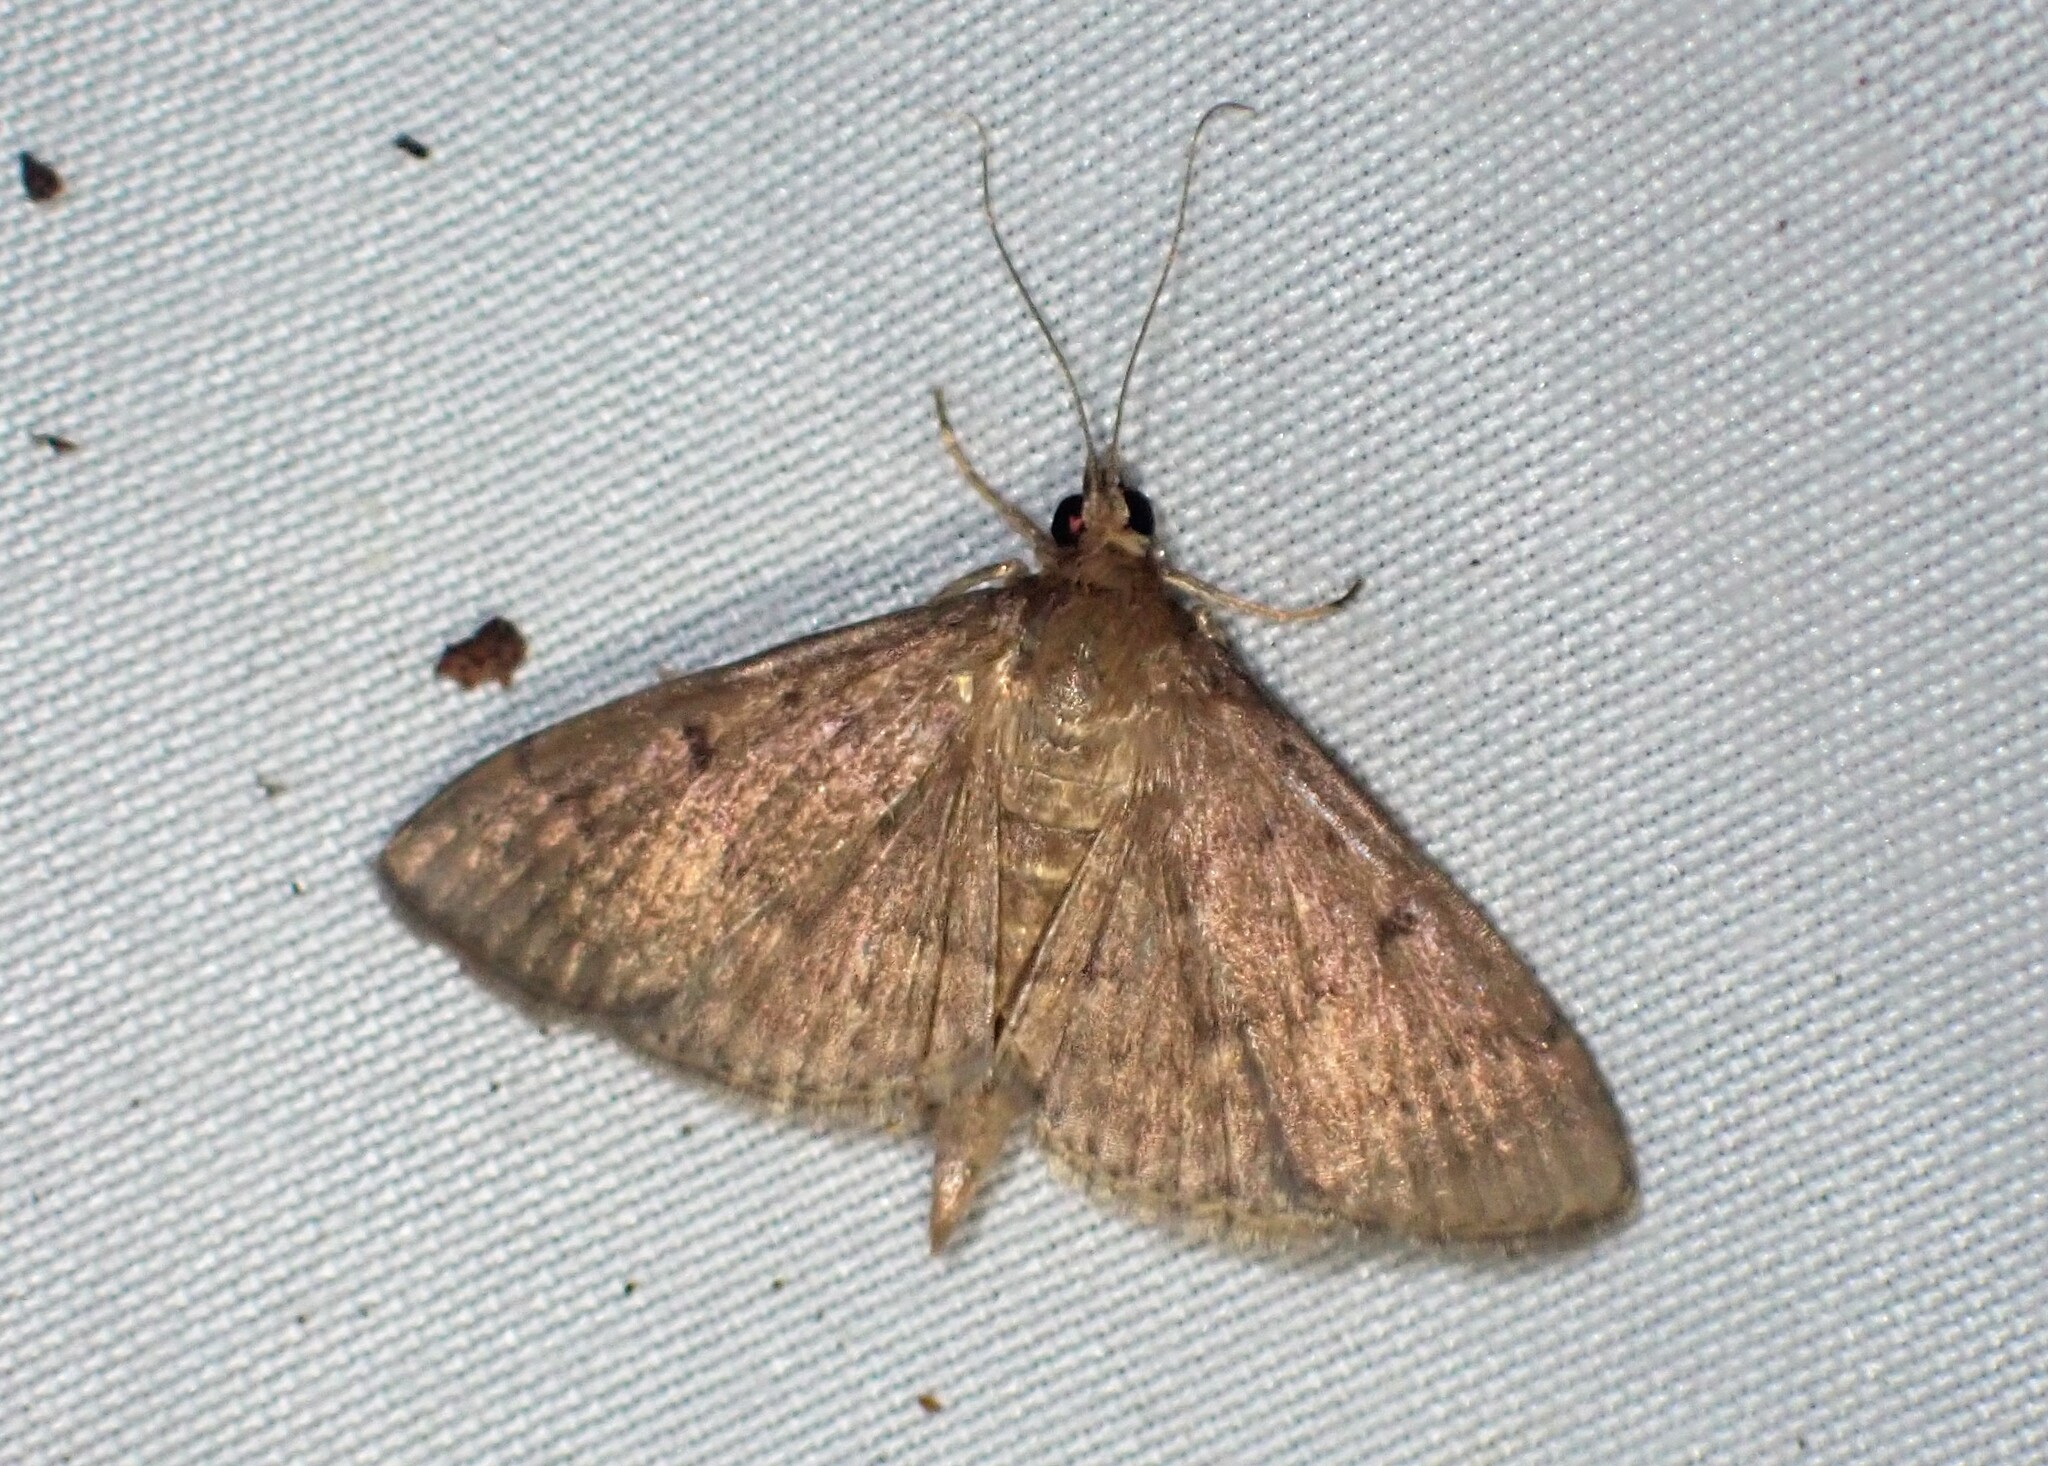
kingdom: Animalia
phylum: Arthropoda
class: Insecta
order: Lepidoptera
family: Crambidae
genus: Herpetogramma
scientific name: Herpetogramma licarsisalis
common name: Grass webworm
